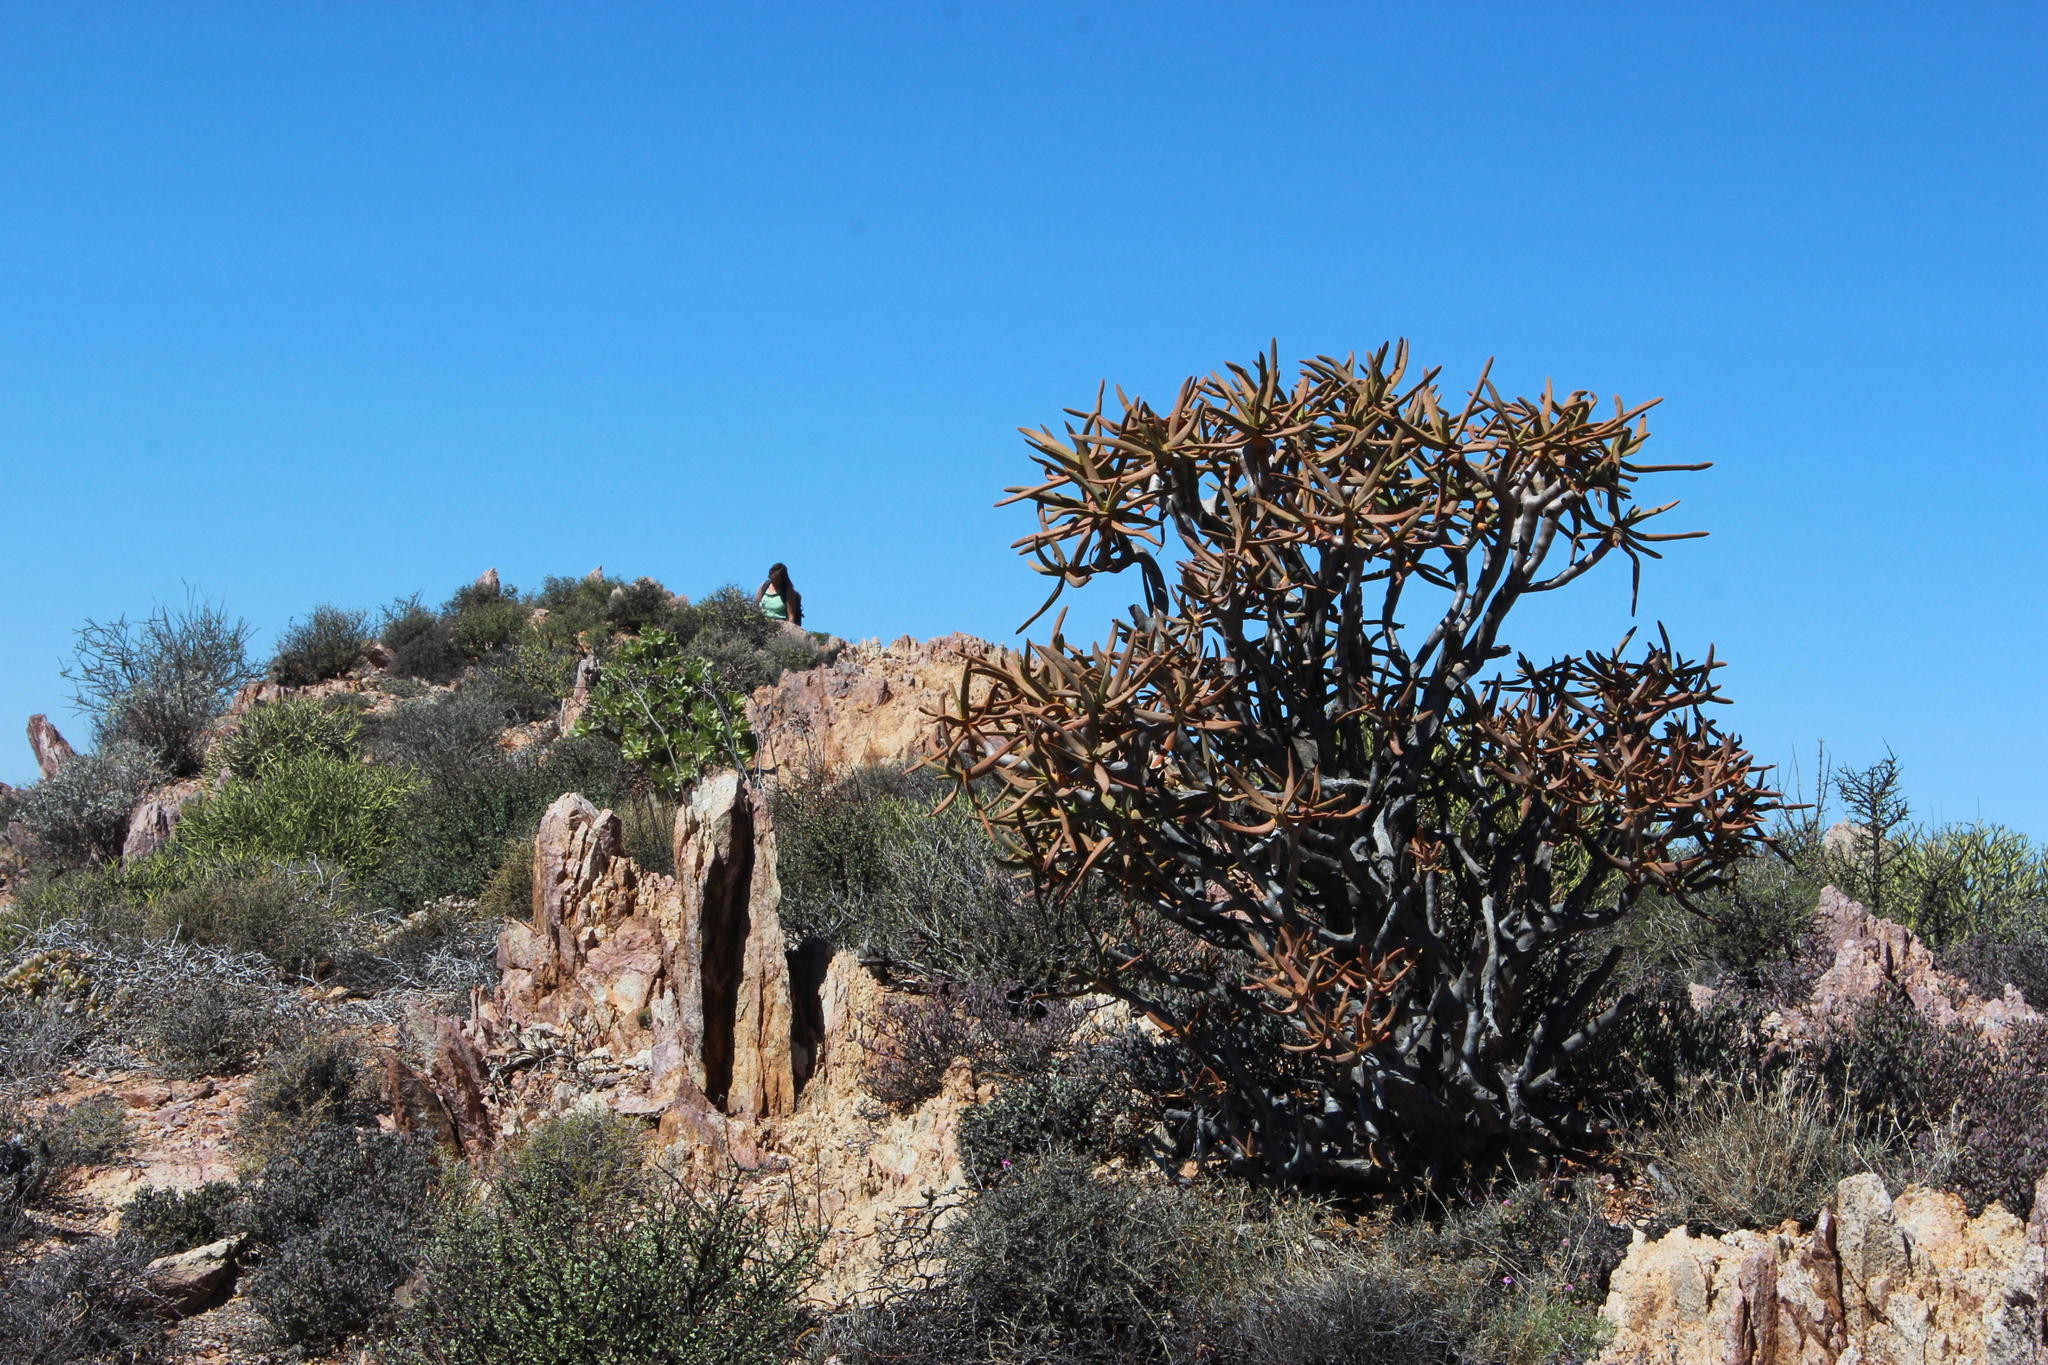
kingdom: Plantae
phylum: Tracheophyta
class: Liliopsida
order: Asparagales
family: Asphodelaceae
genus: Aloidendron
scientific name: Aloidendron ramosissimum
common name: Bush quiver tree
